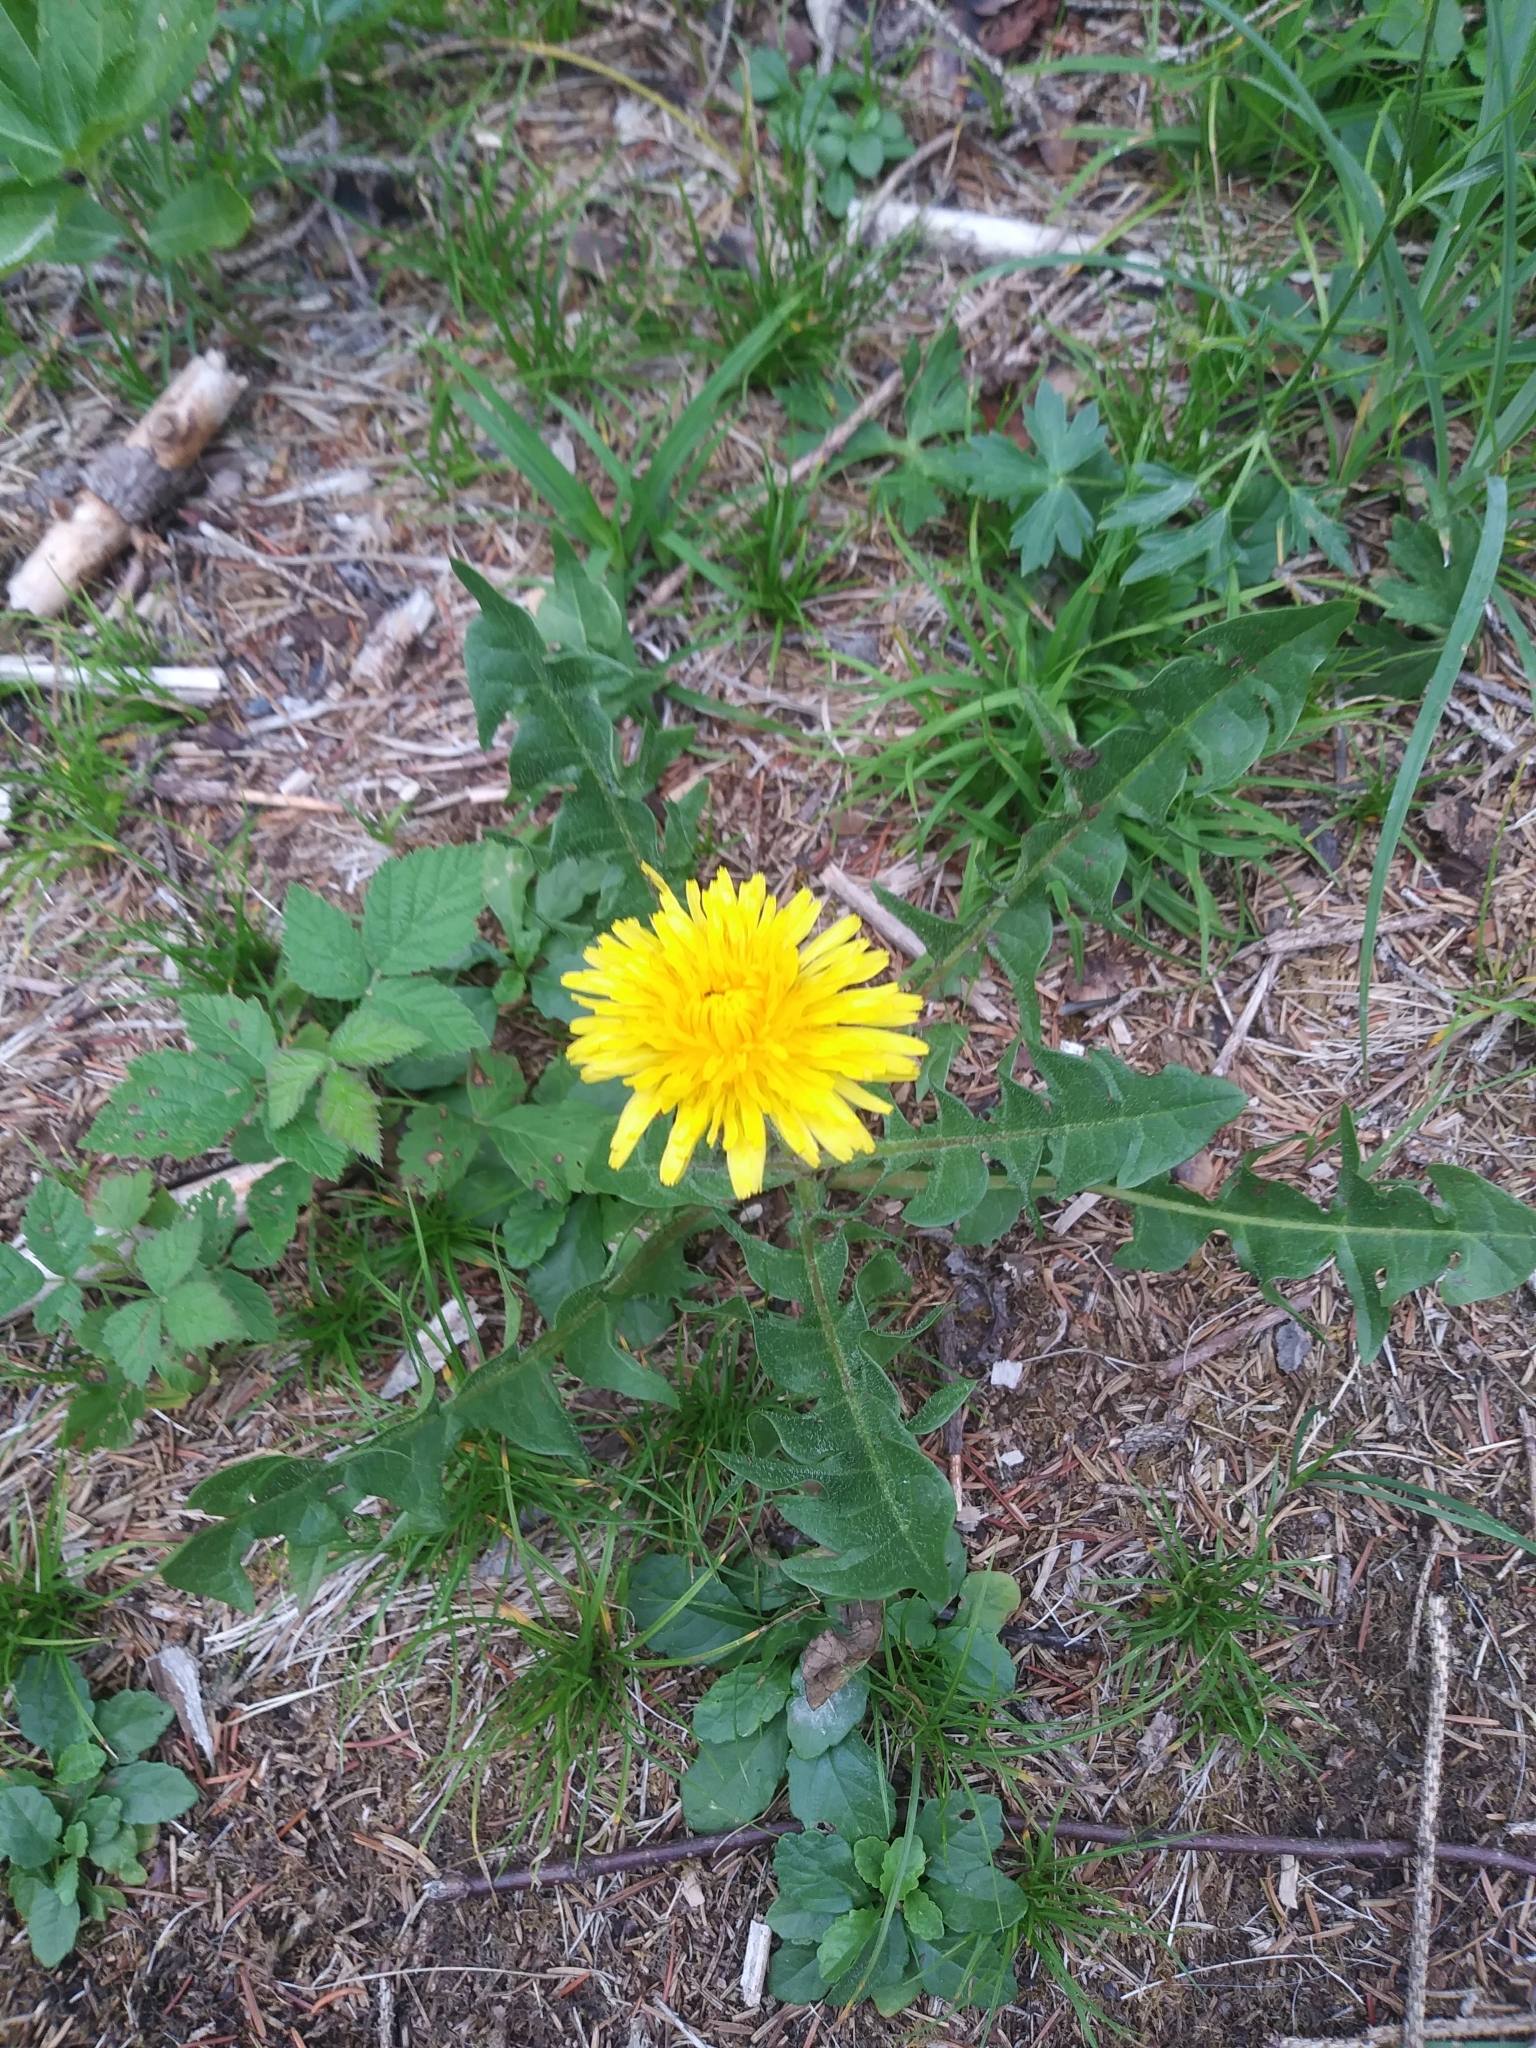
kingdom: Plantae
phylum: Tracheophyta
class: Magnoliopsida
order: Asterales
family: Asteraceae
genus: Taraxacum
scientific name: Taraxacum officinale
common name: Common dandelion
